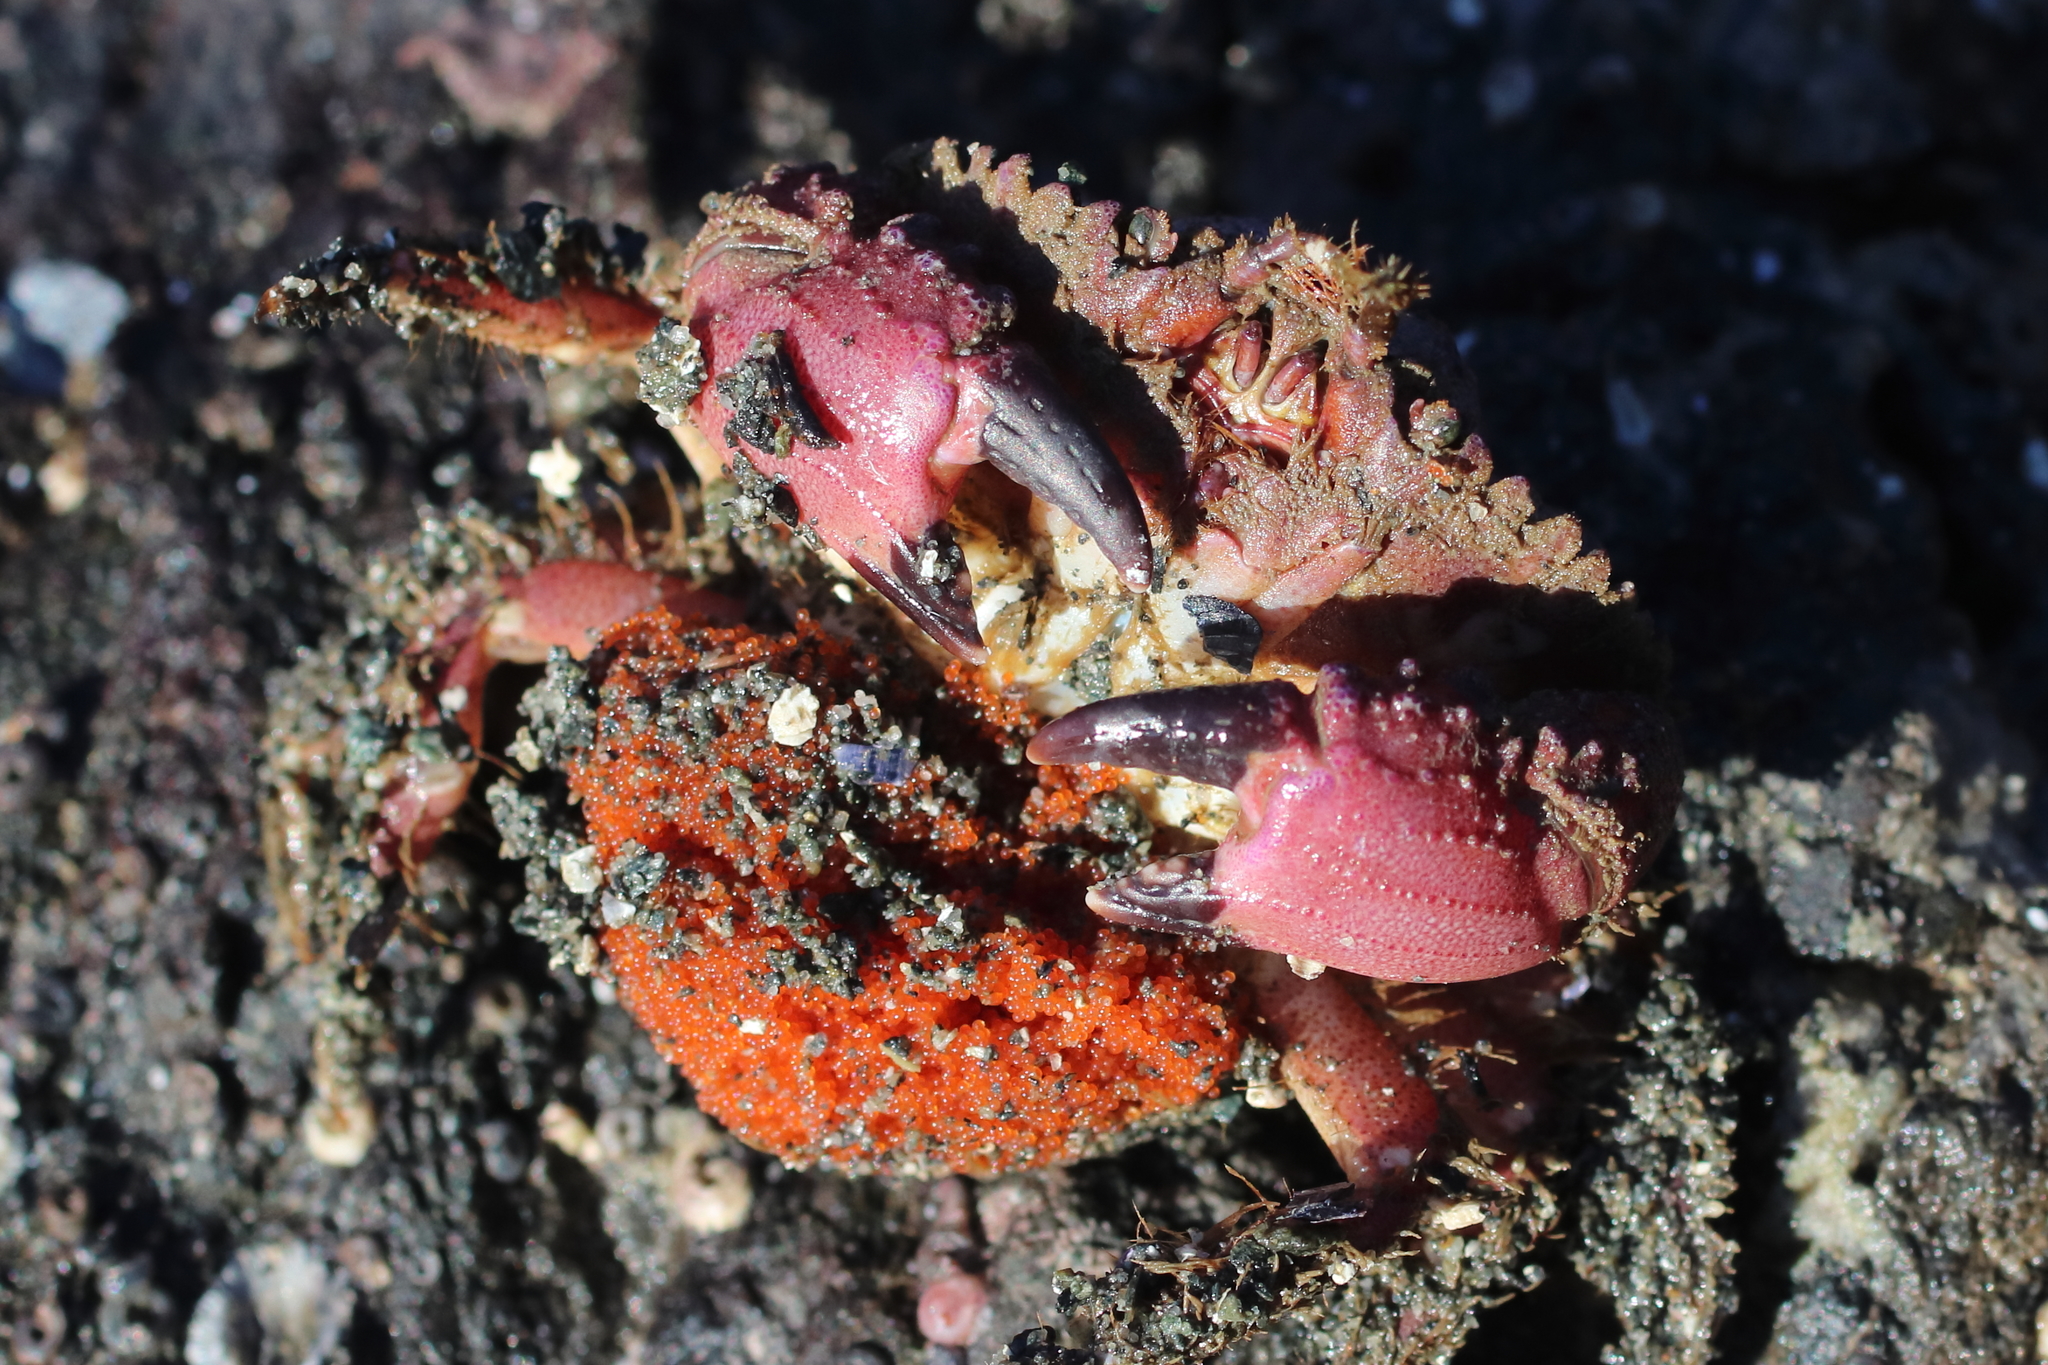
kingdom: Animalia
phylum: Arthropoda
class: Malacostraca
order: Decapoda
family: Cancridae
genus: Glebocarcinus
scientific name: Glebocarcinus oregonensis
